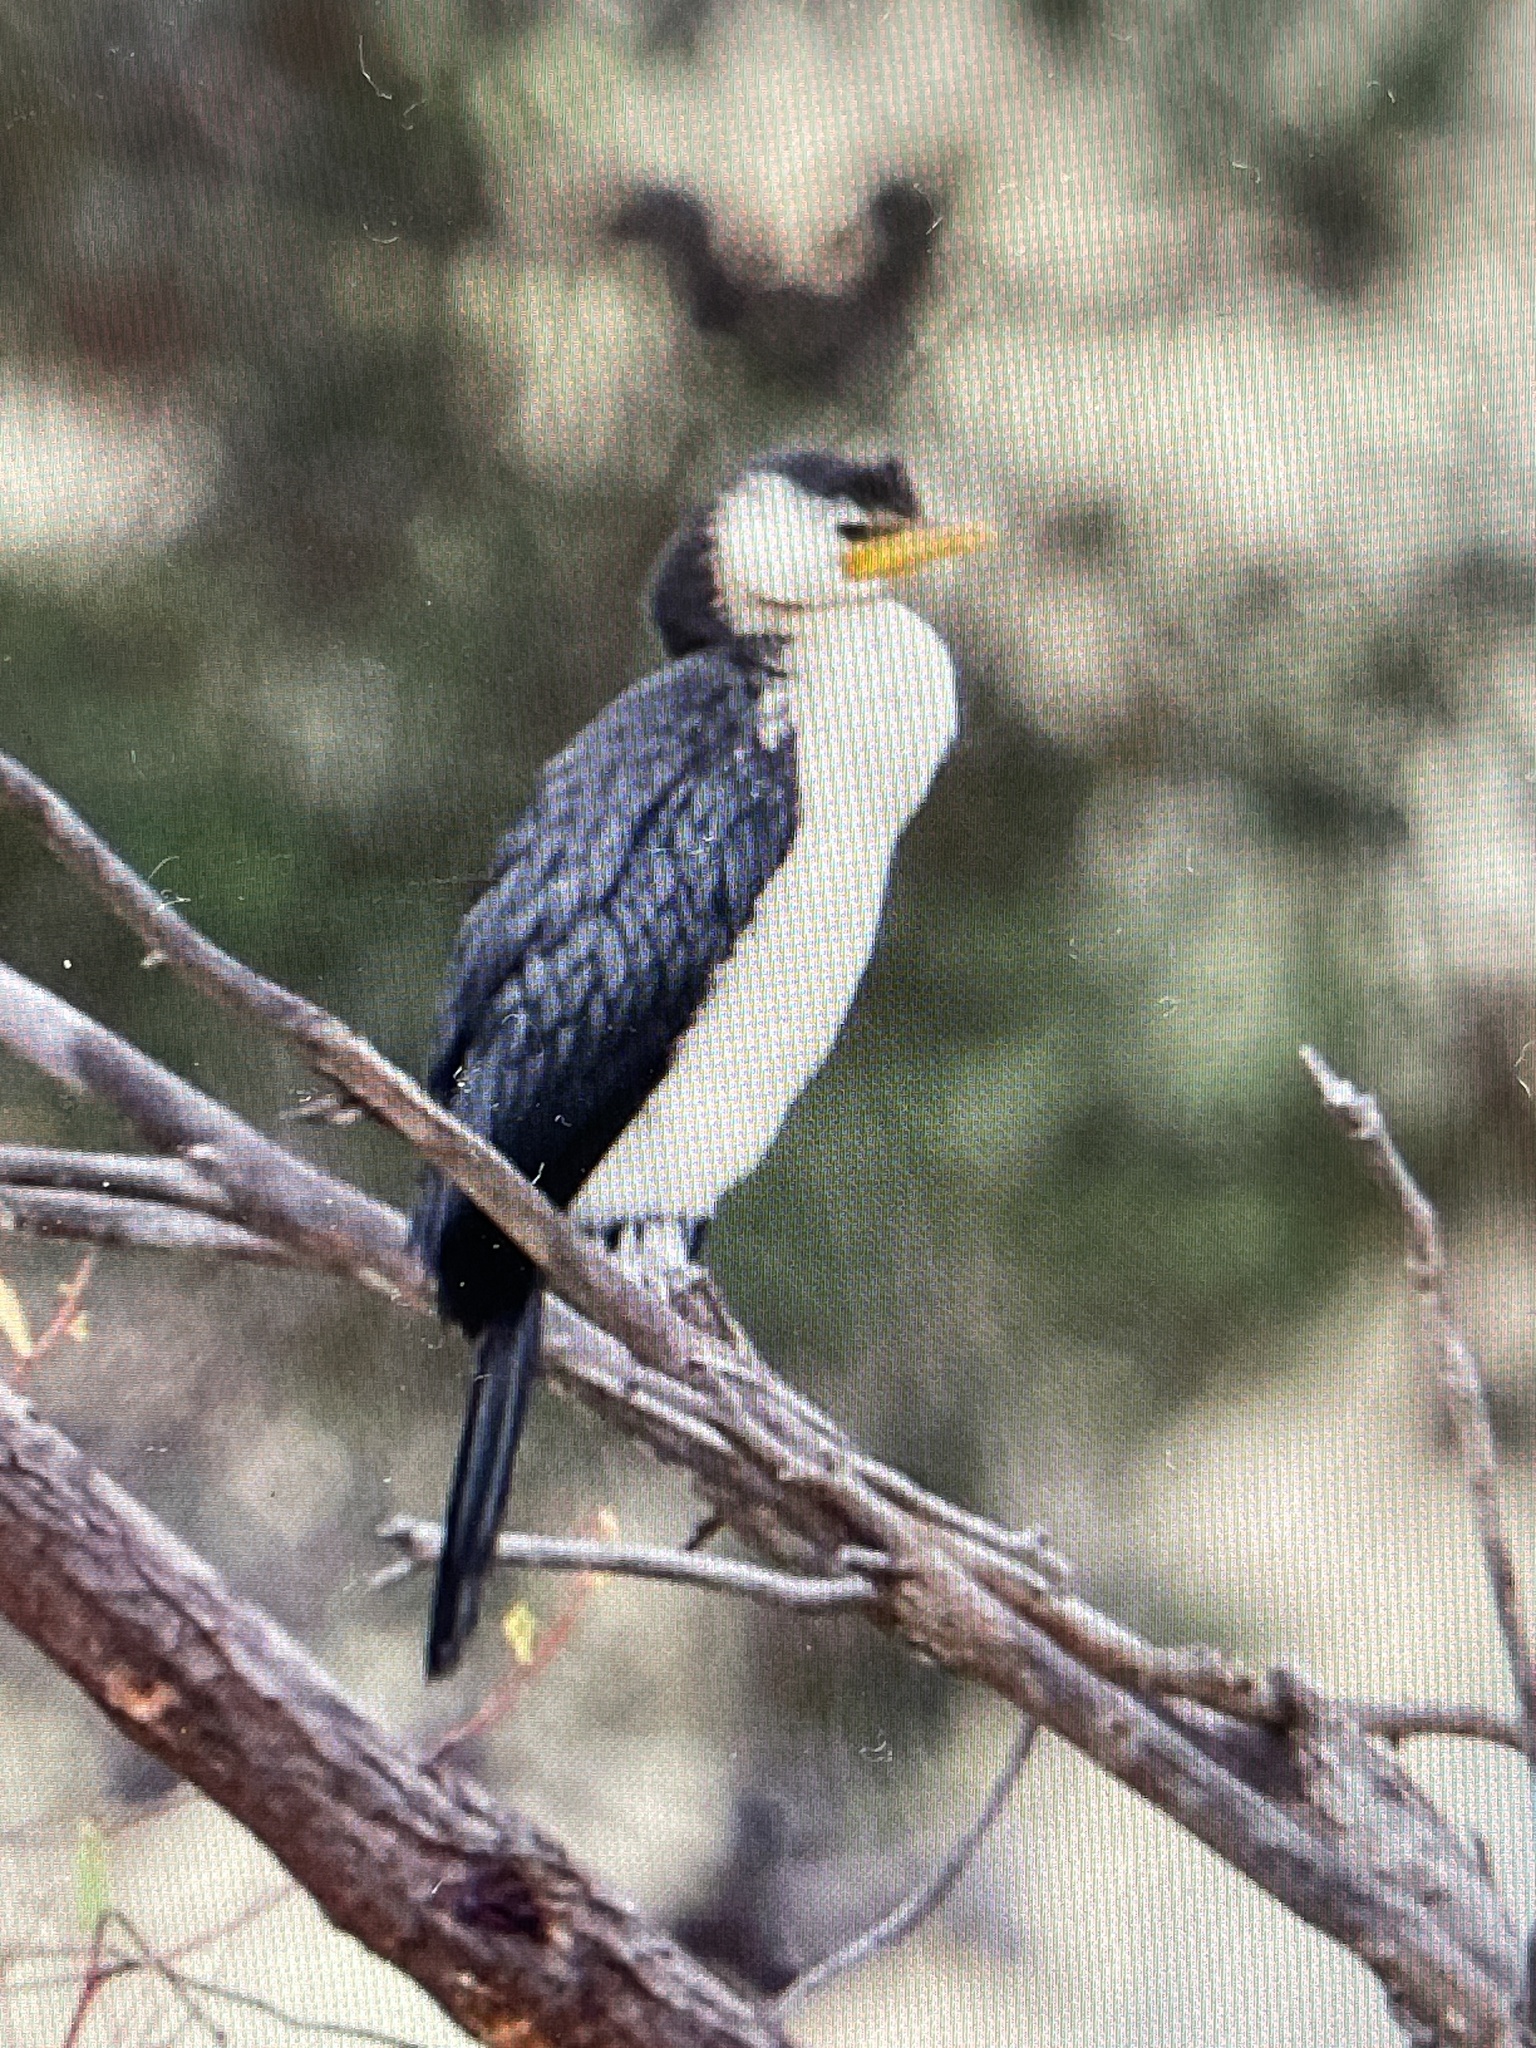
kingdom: Animalia
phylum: Chordata
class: Aves
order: Suliformes
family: Phalacrocoracidae
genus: Microcarbo
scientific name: Microcarbo melanoleucos
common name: Little pied cormorant
